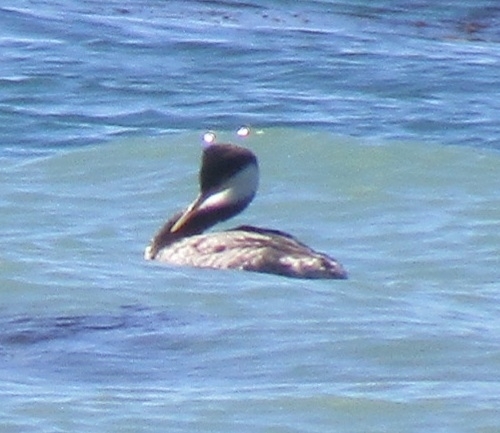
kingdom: Animalia
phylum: Chordata
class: Aves
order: Podicipediformes
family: Podicipedidae
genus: Aechmophorus
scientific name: Aechmophorus occidentalis
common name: Western grebe
